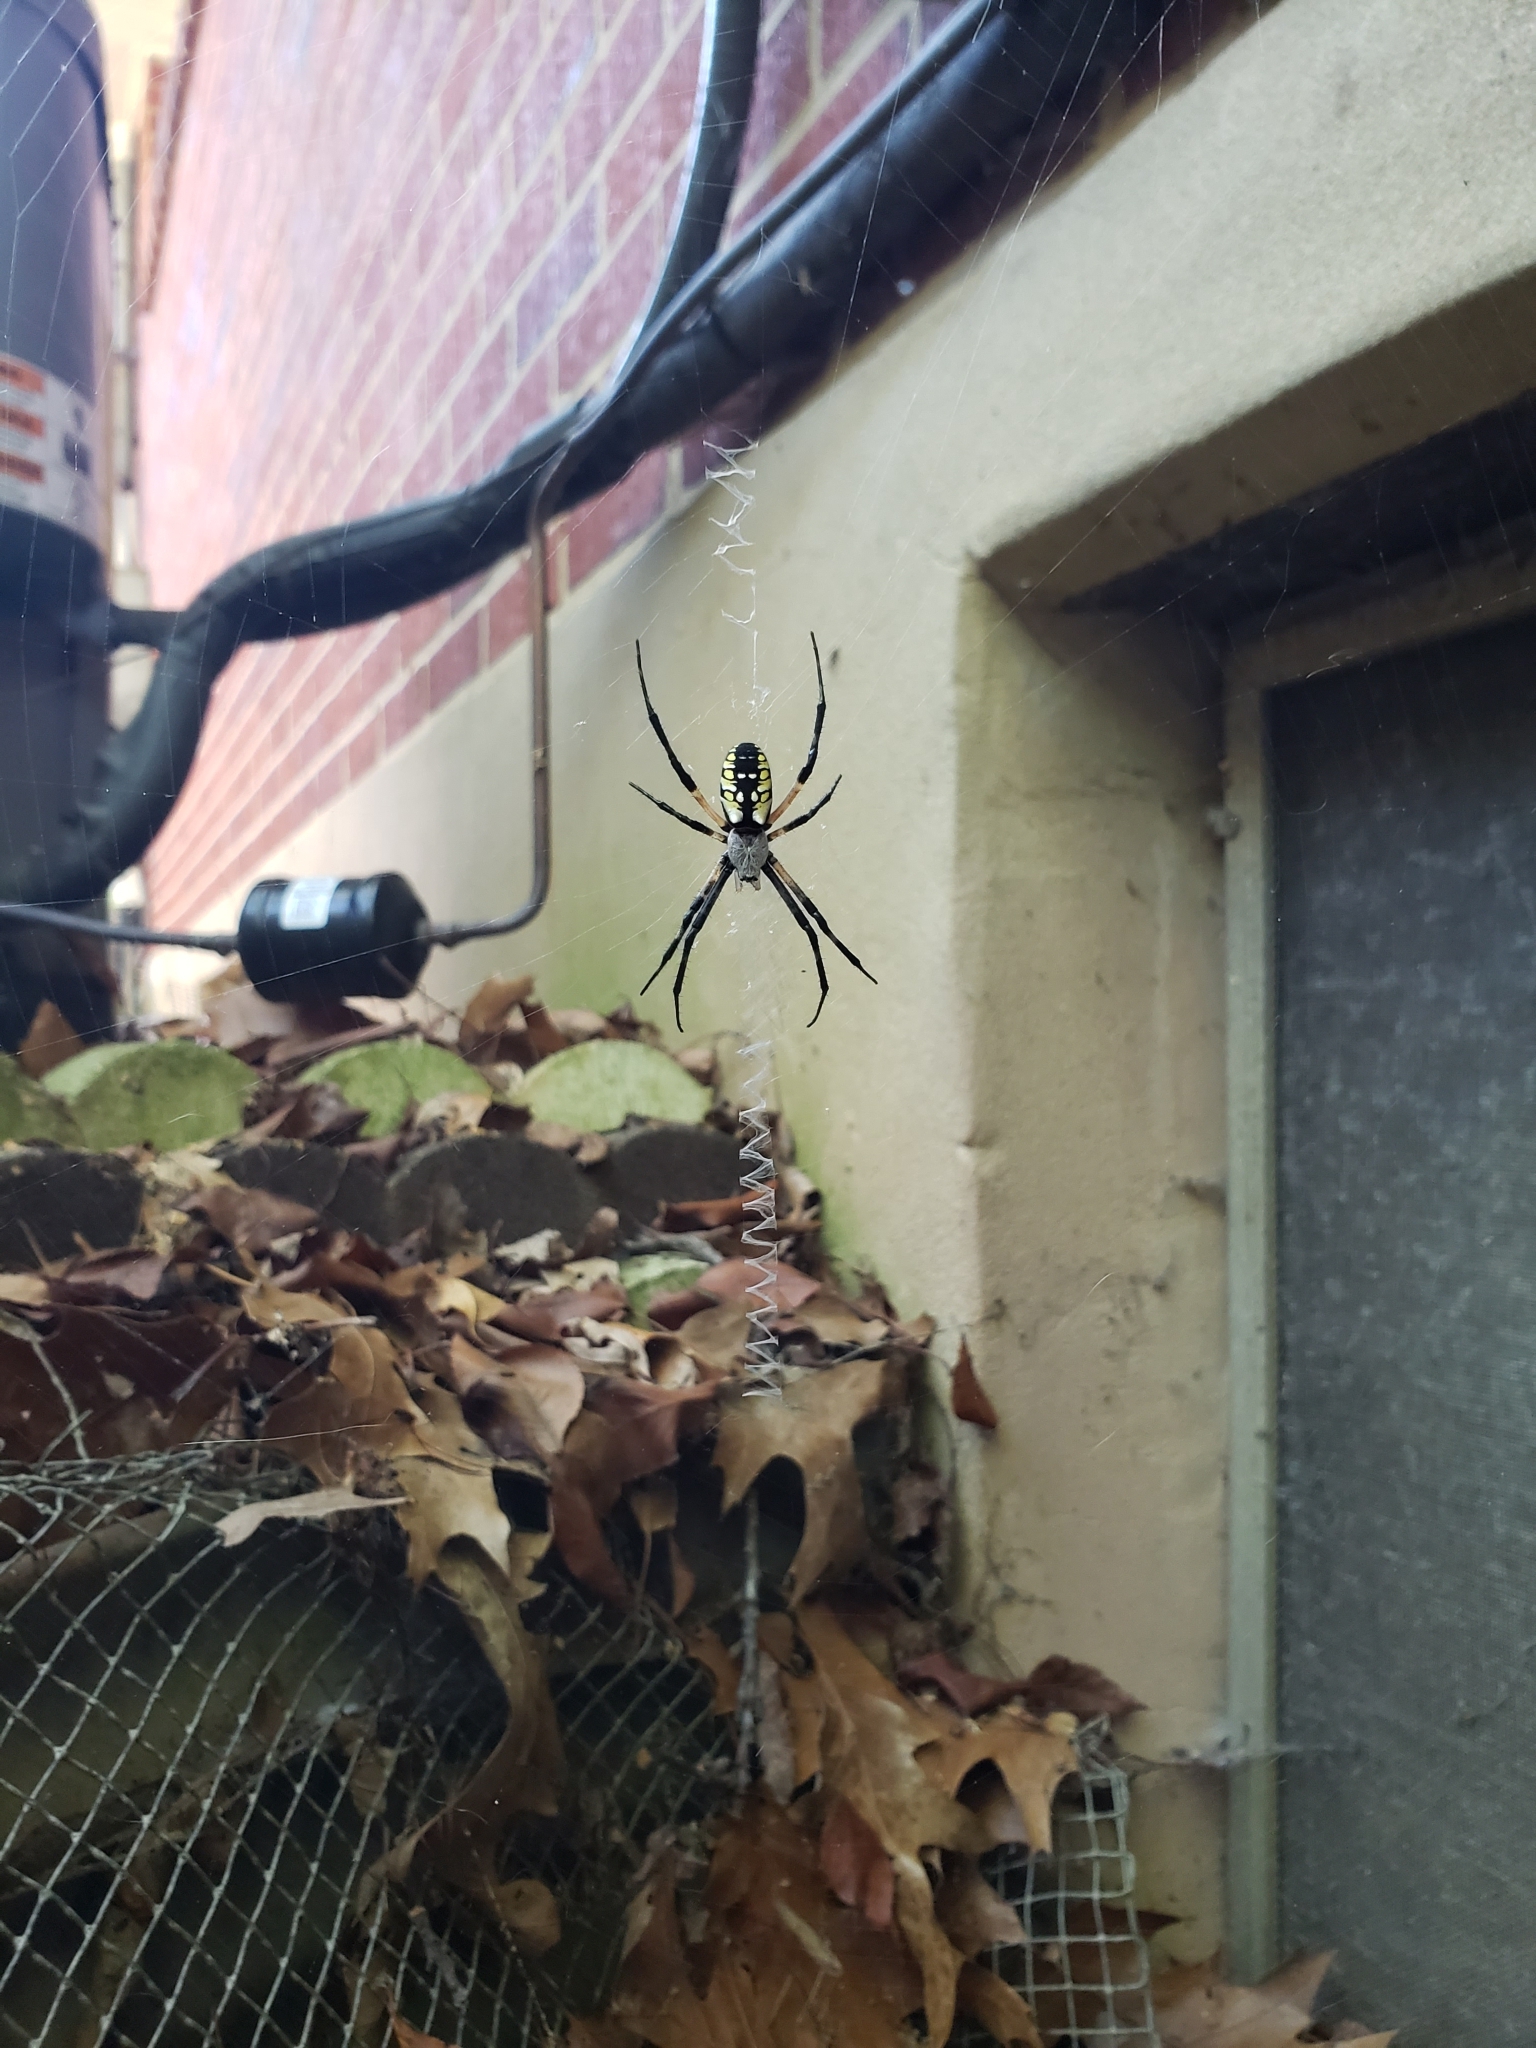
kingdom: Animalia
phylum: Arthropoda
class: Arachnida
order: Araneae
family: Araneidae
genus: Argiope
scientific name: Argiope aurantia
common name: Orb weavers
